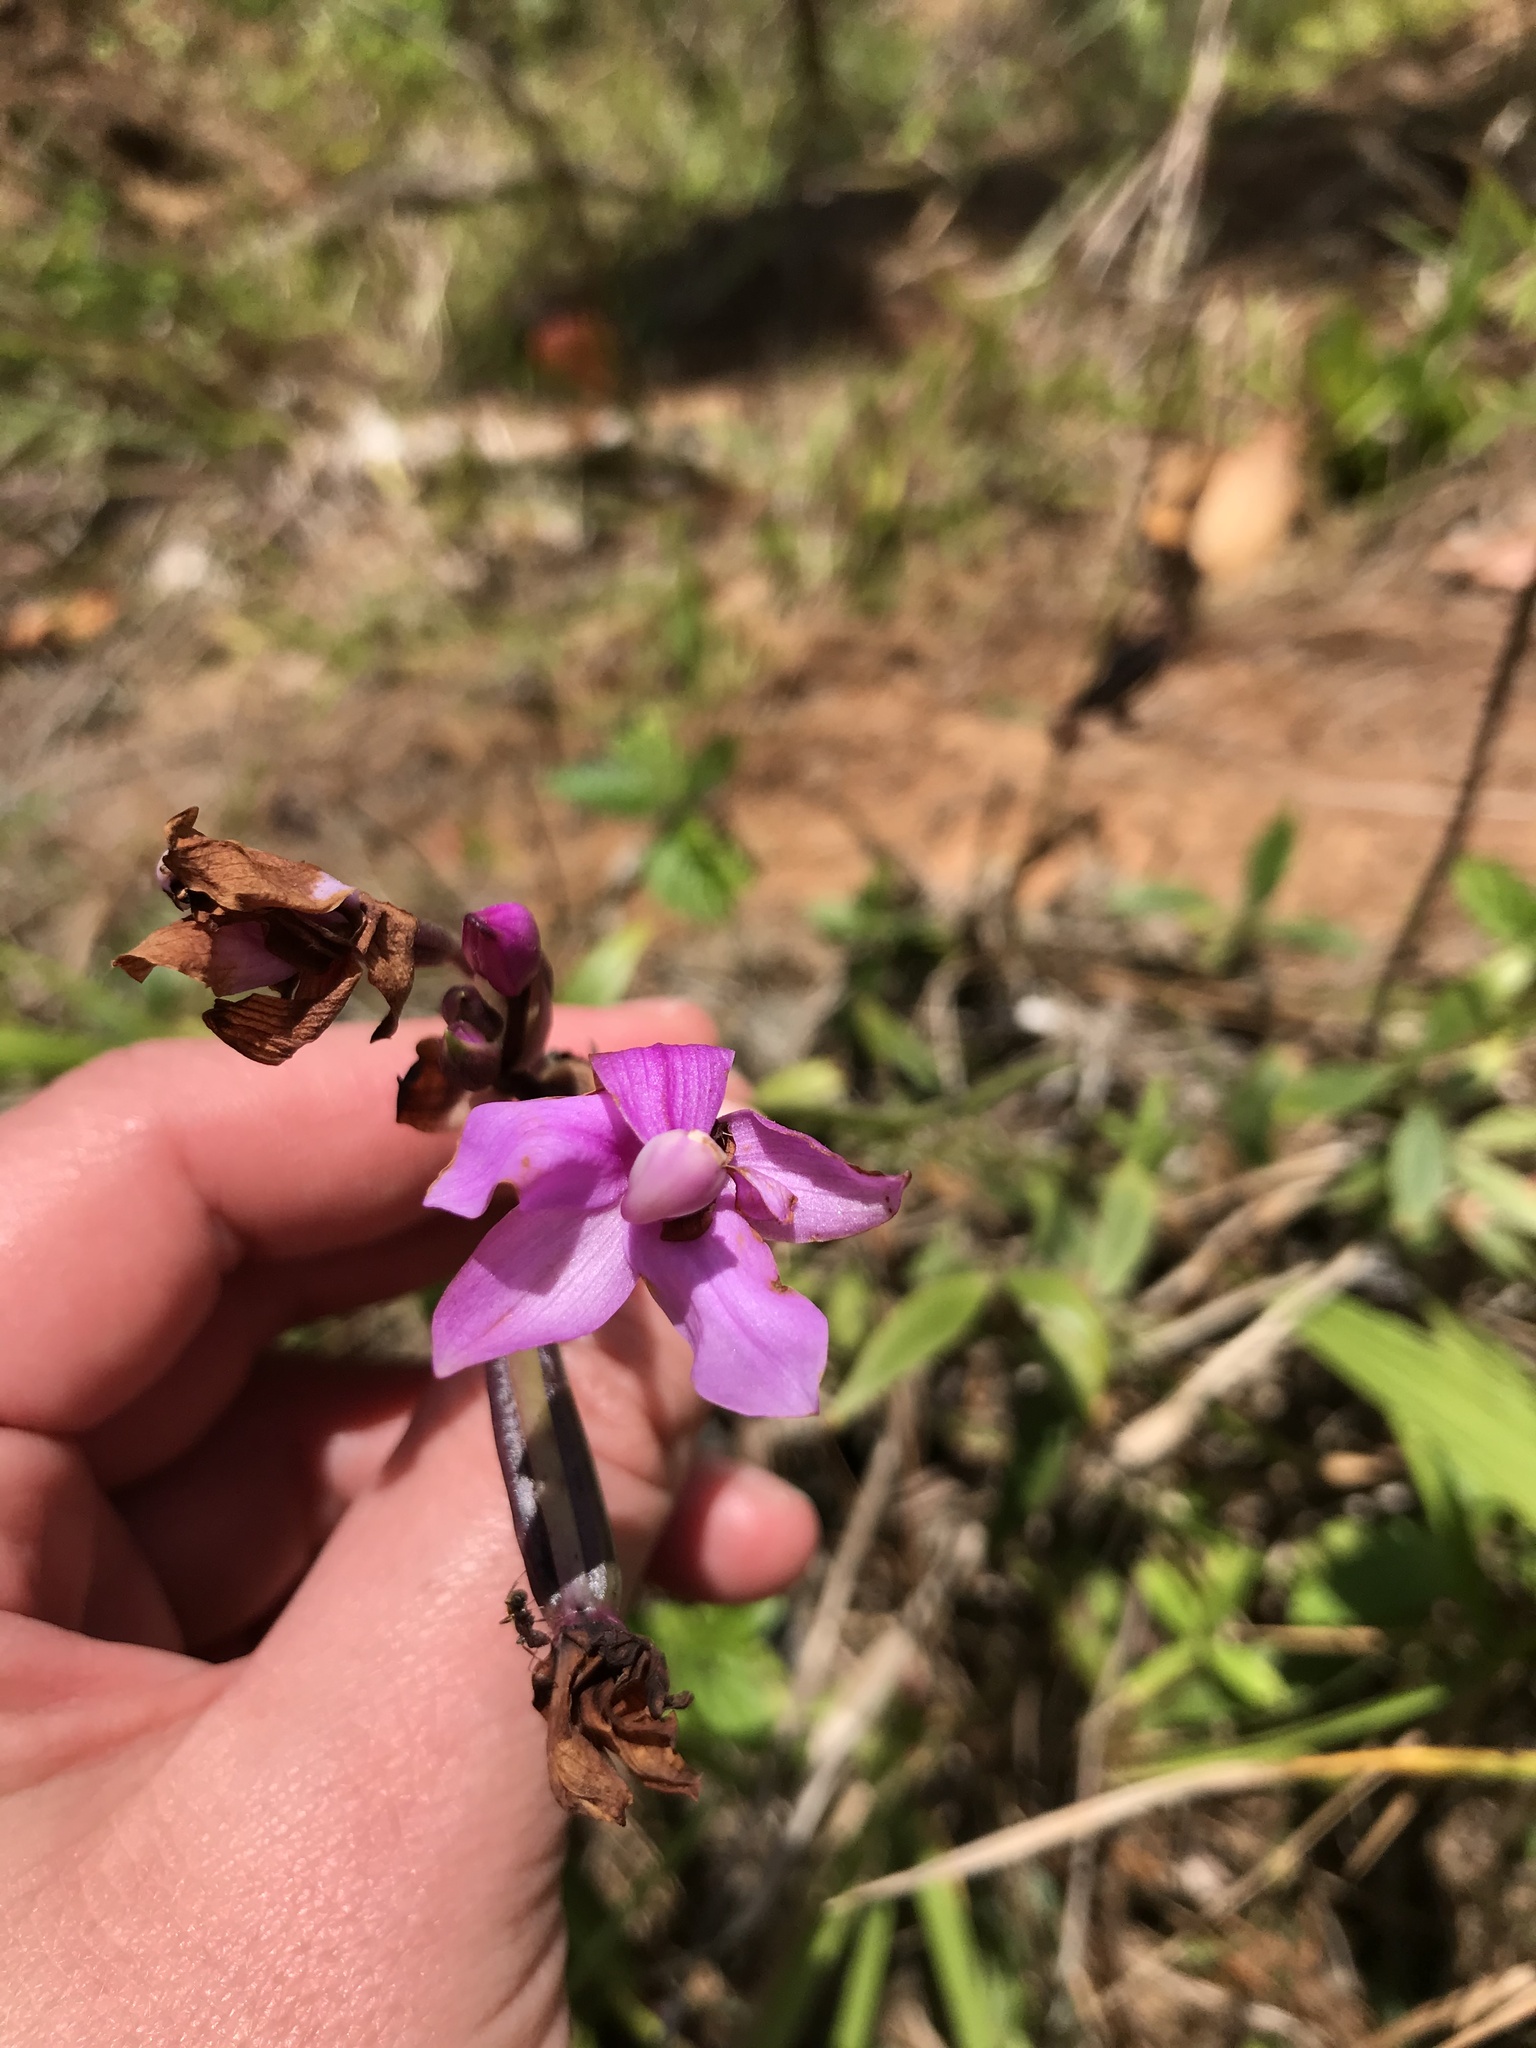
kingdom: Plantae
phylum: Tracheophyta
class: Liliopsida
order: Asparagales
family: Orchidaceae
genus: Spathoglottis
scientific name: Spathoglottis plicata
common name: Philippine ground orchid
